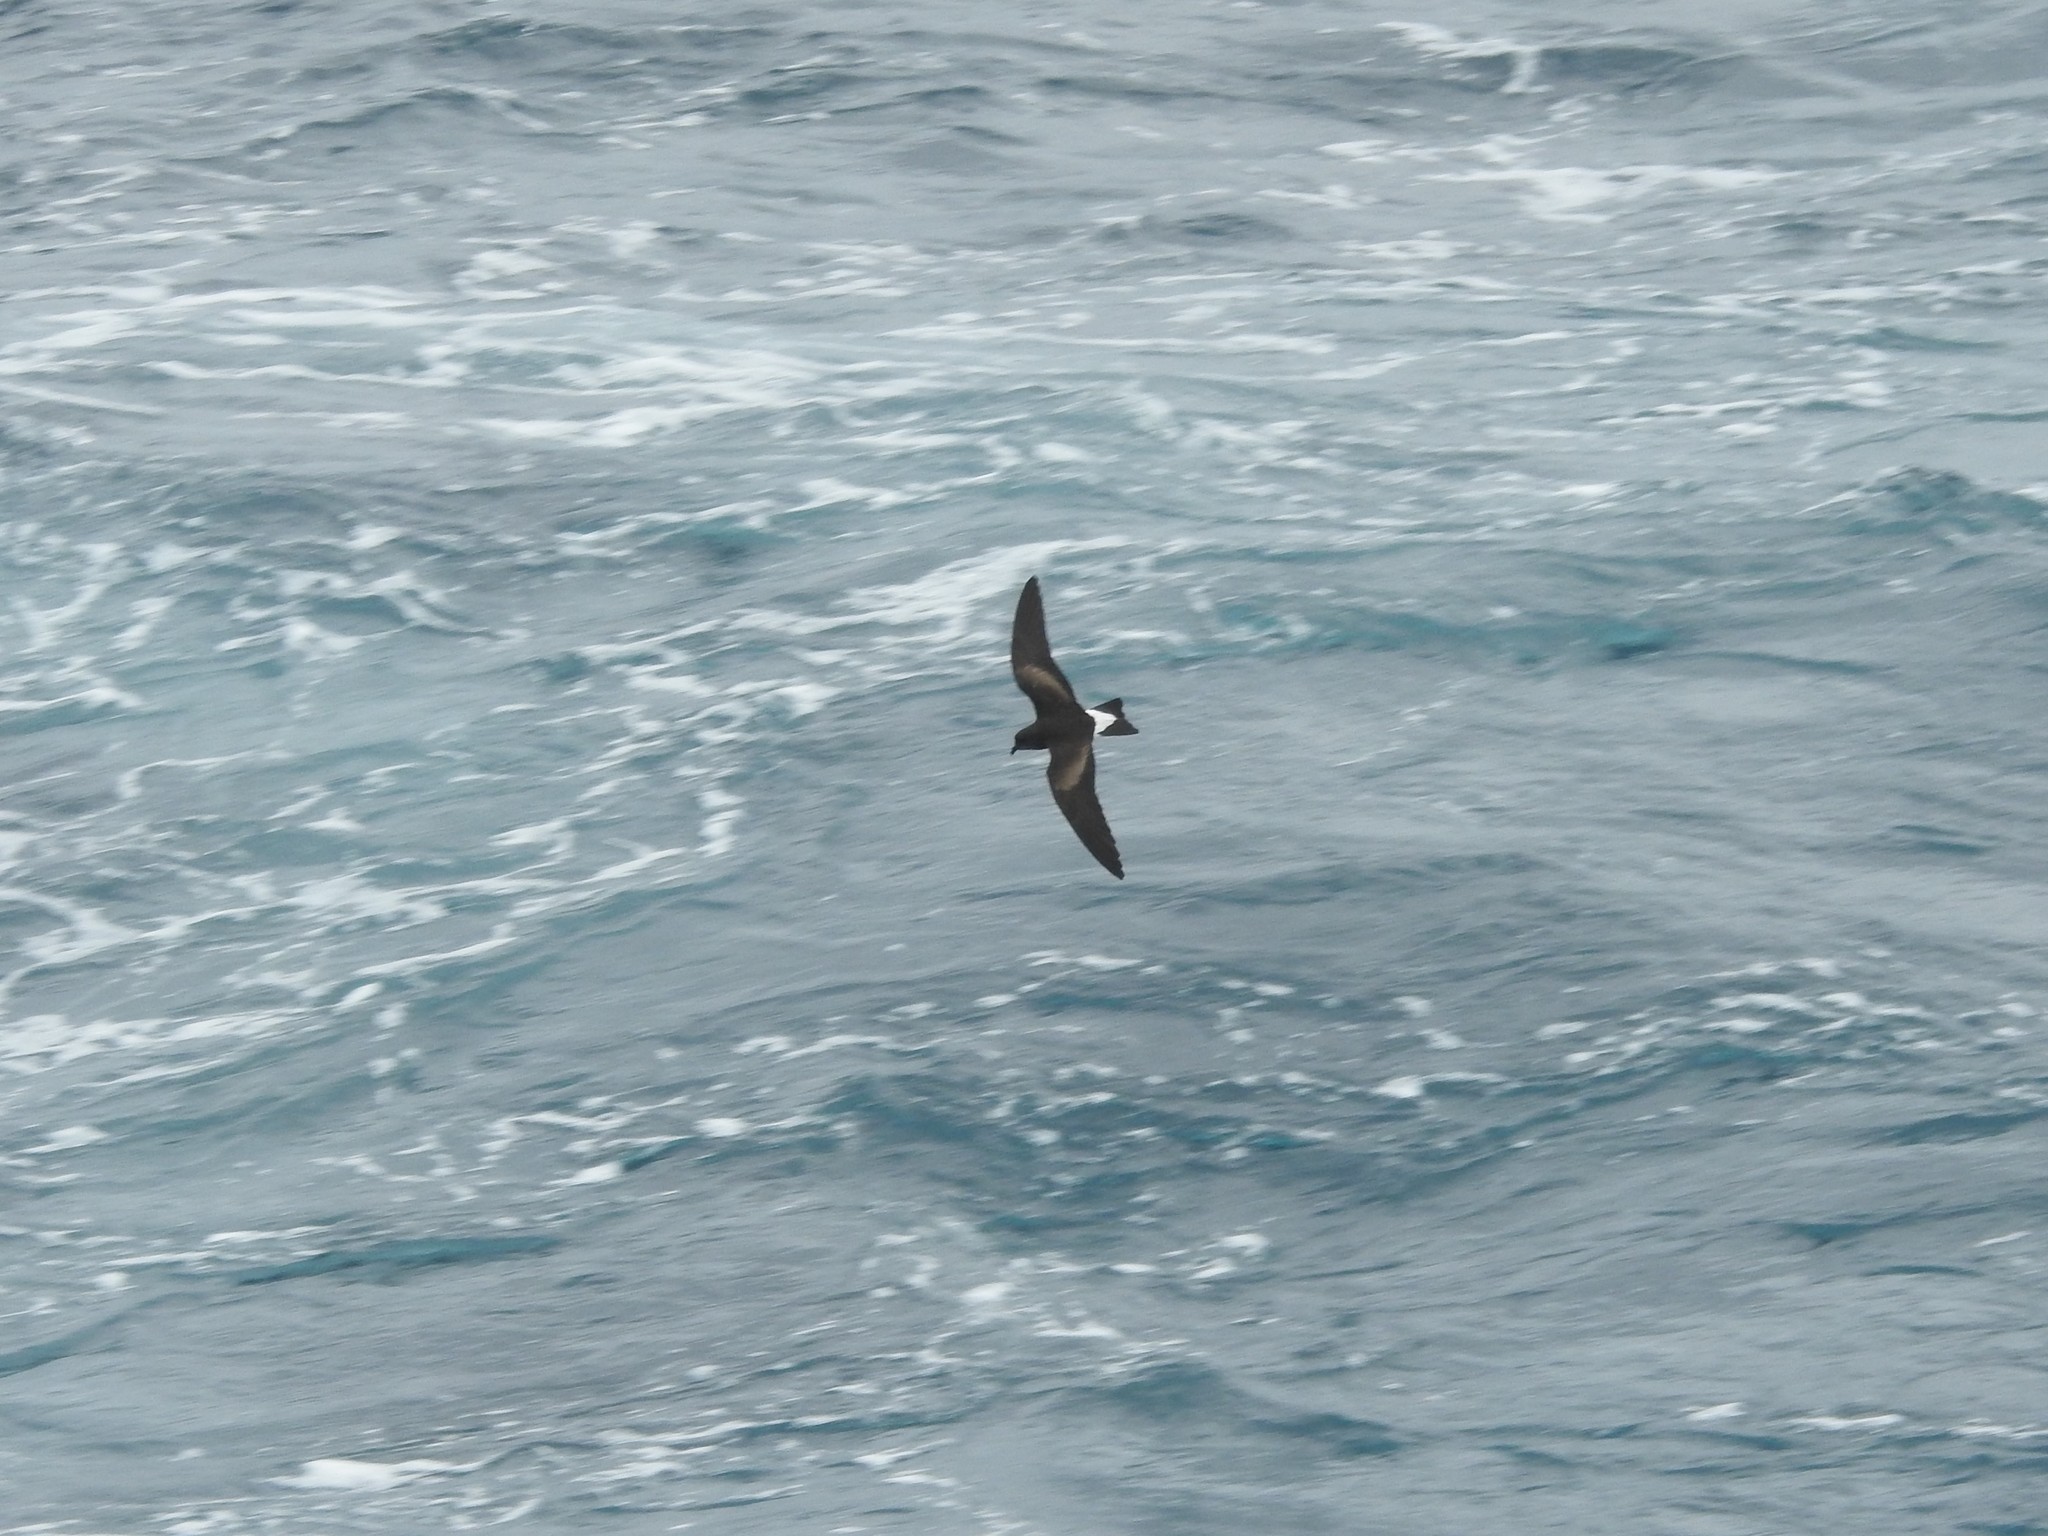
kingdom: Animalia
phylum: Chordata
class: Aves
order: Procellariiformes
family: Hydrobatidae
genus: Oceanodroma
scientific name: Oceanodroma tethys
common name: Wedge-rumped storm-petrel
